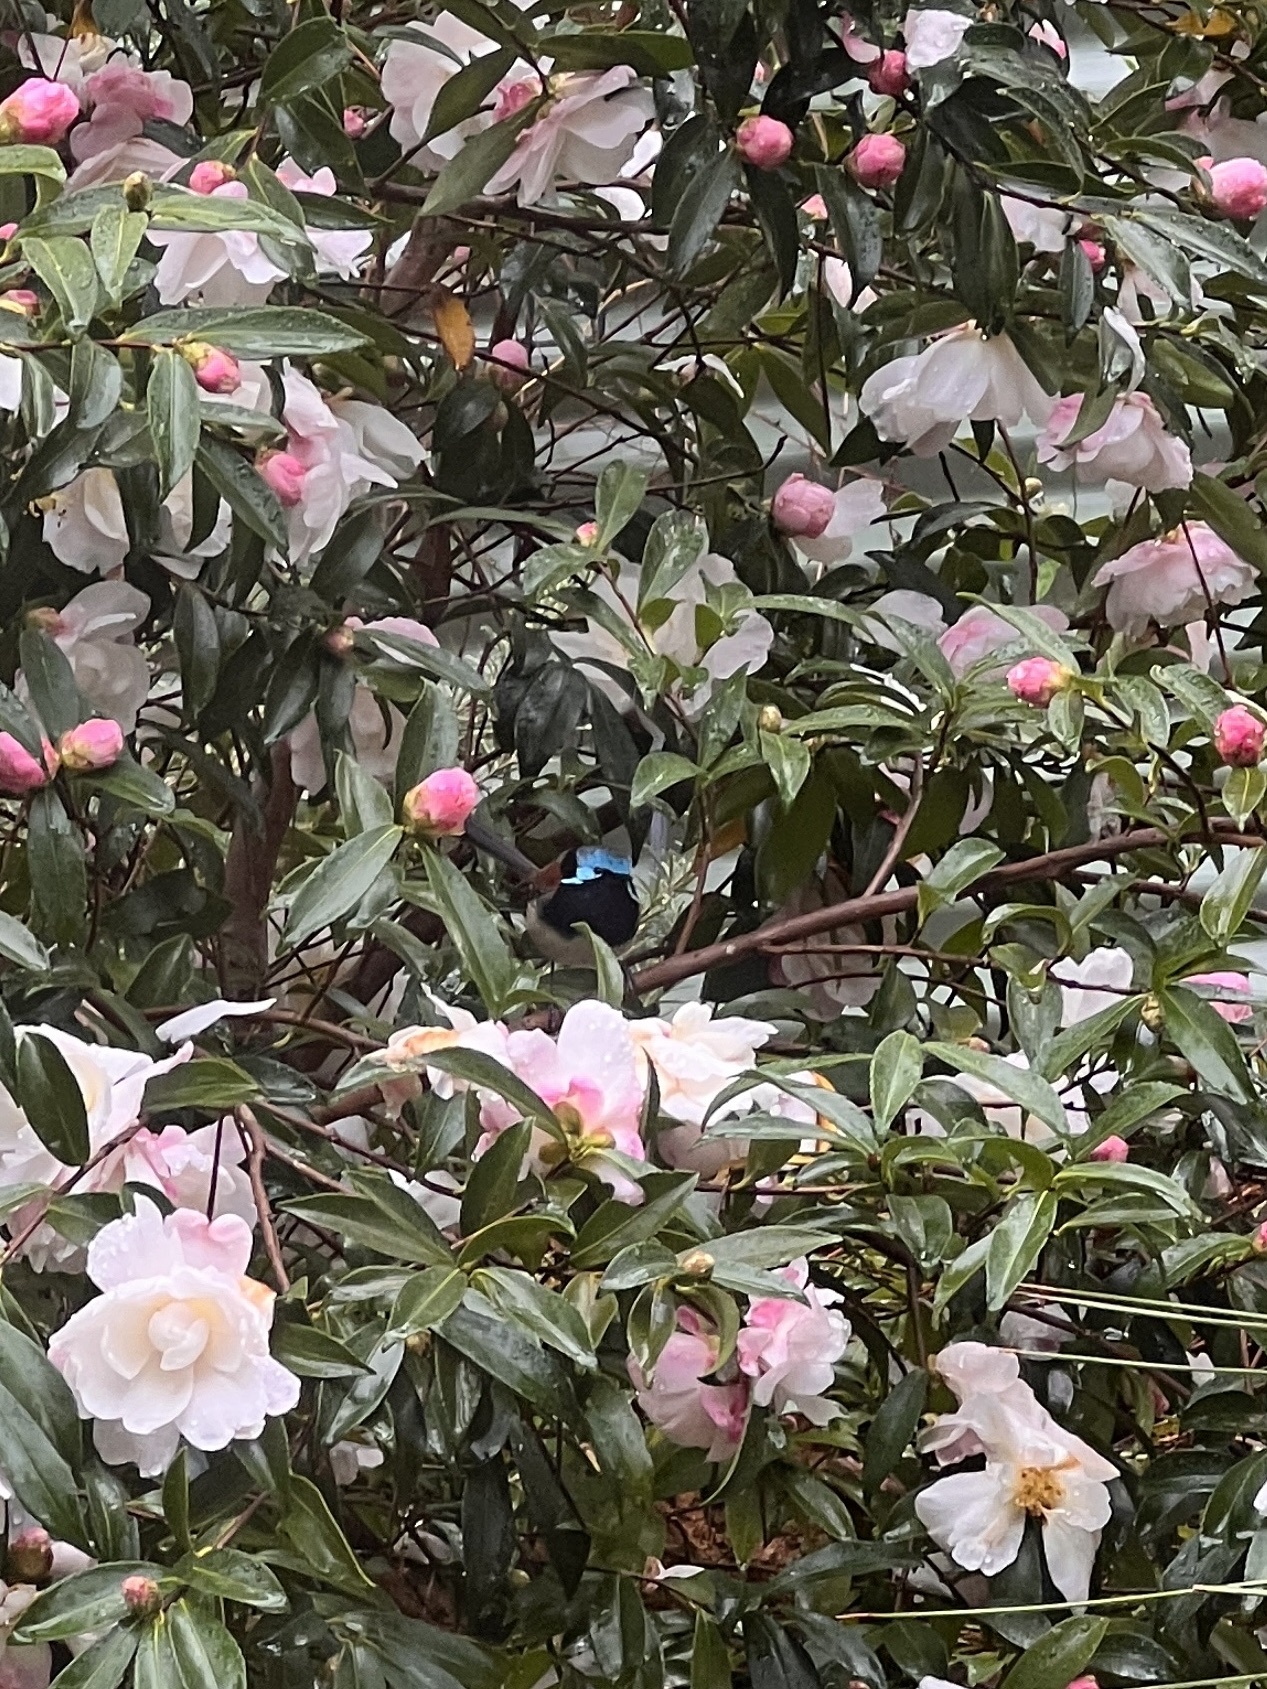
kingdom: Animalia
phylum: Chordata
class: Aves
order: Passeriformes
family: Maluridae
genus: Malurus
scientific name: Malurus elegans
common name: Red-winged fairywren
